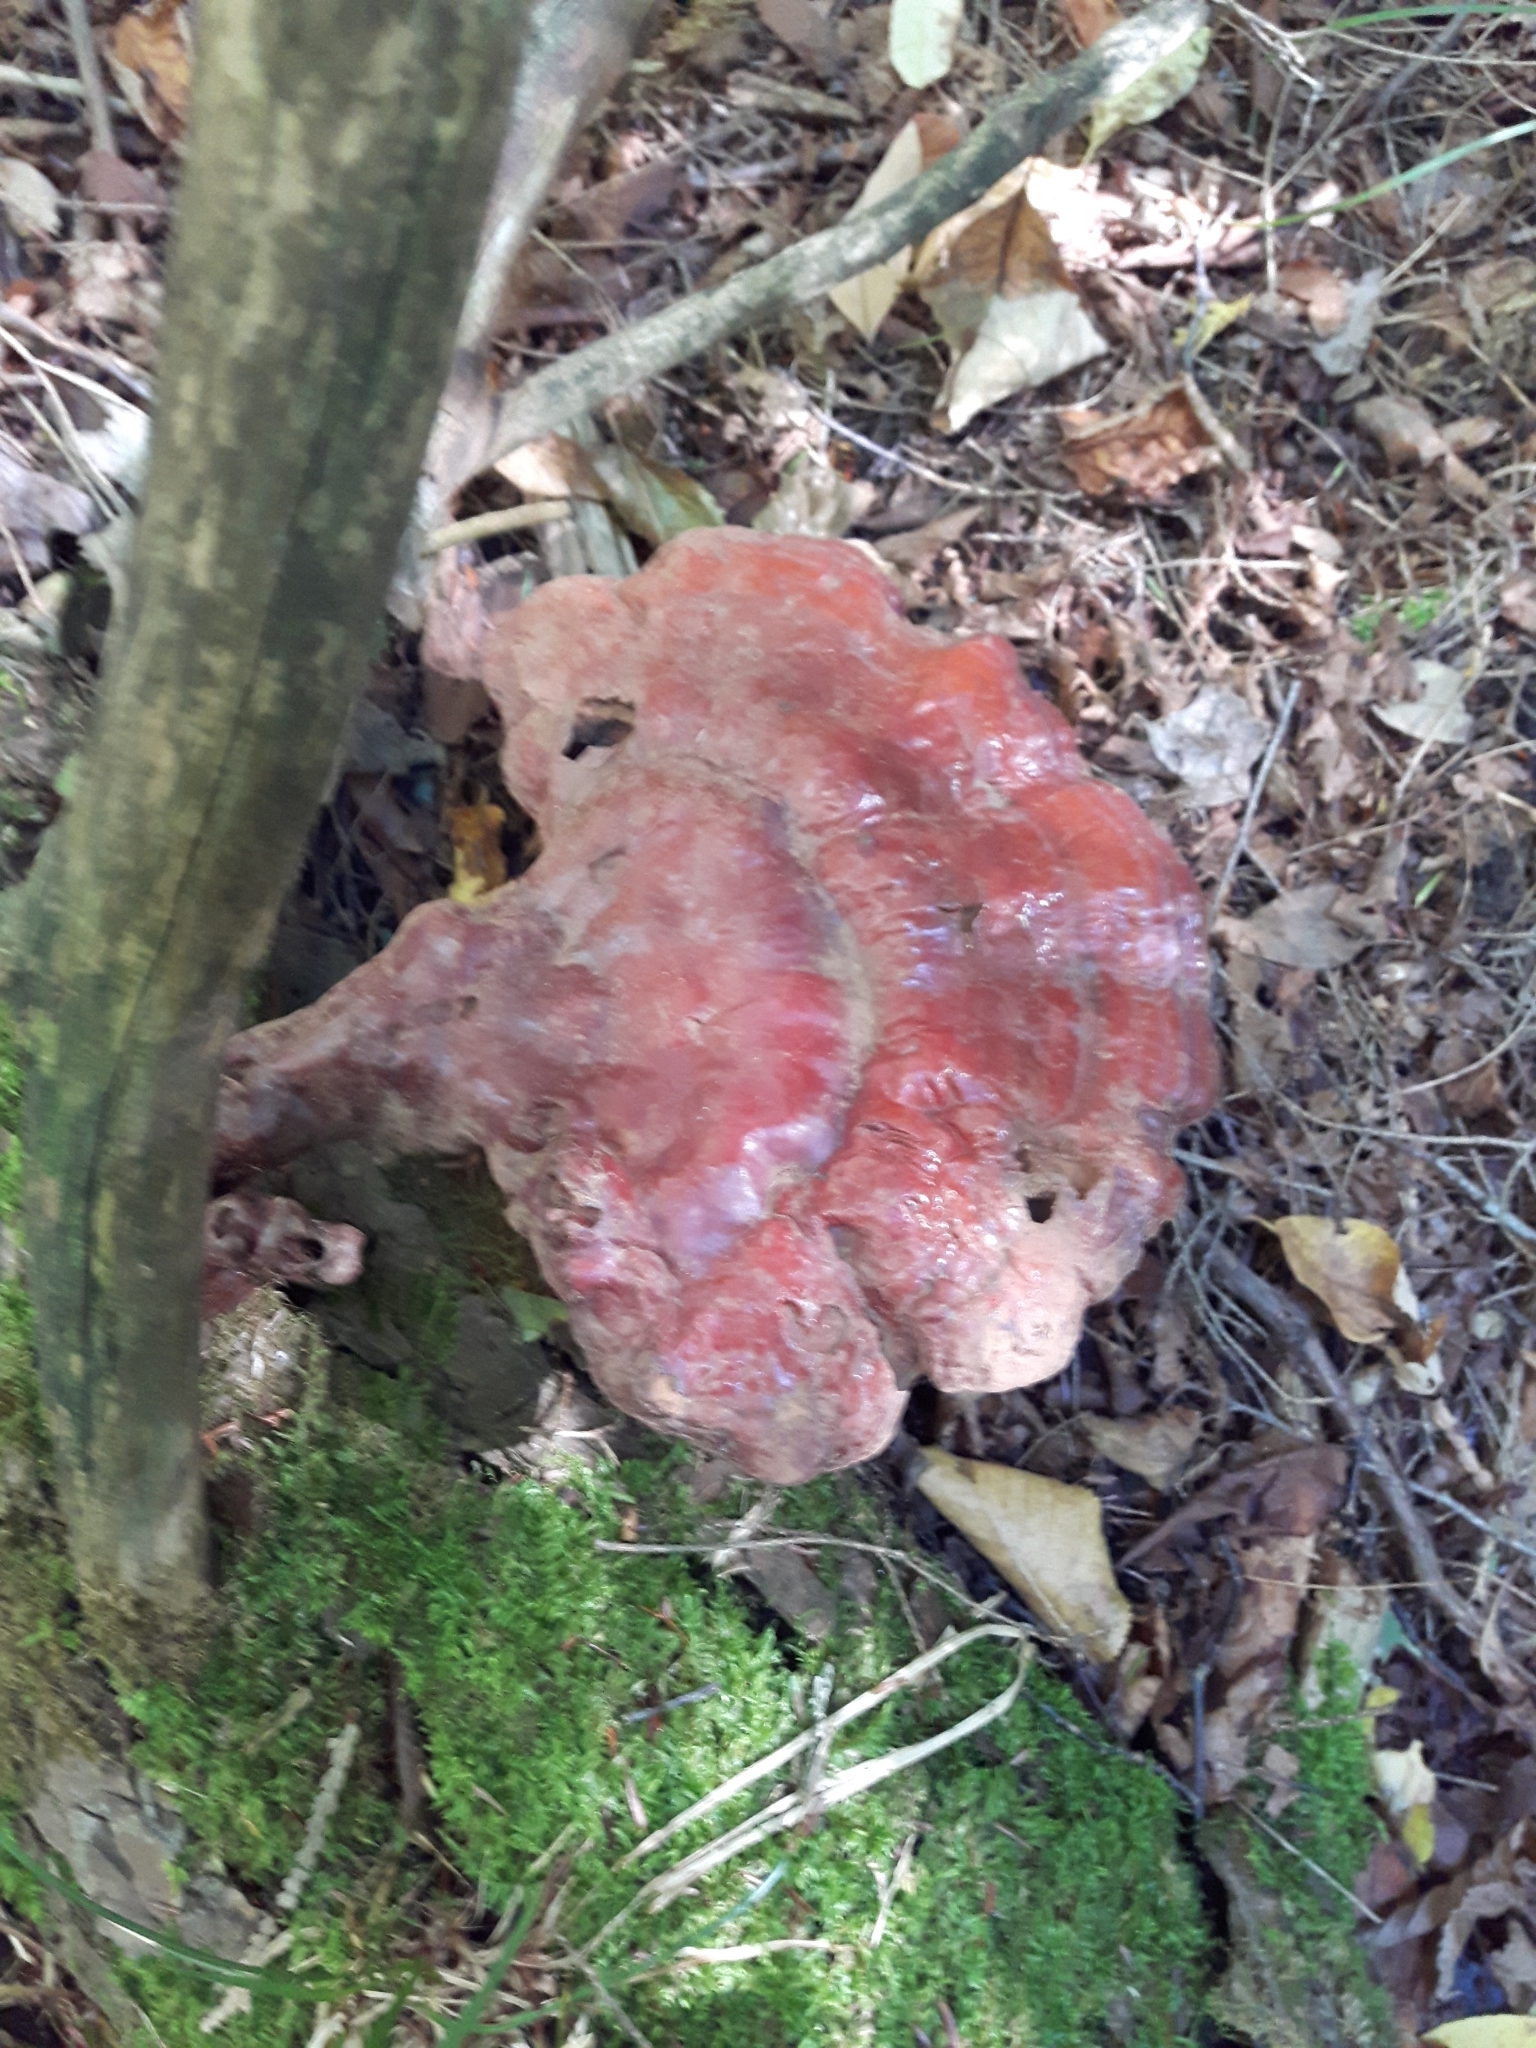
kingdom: Fungi
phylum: Basidiomycota
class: Agaricomycetes
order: Polyporales
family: Polyporaceae
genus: Ganoderma
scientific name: Ganoderma tsugae
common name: Hemlock varnish shelf
